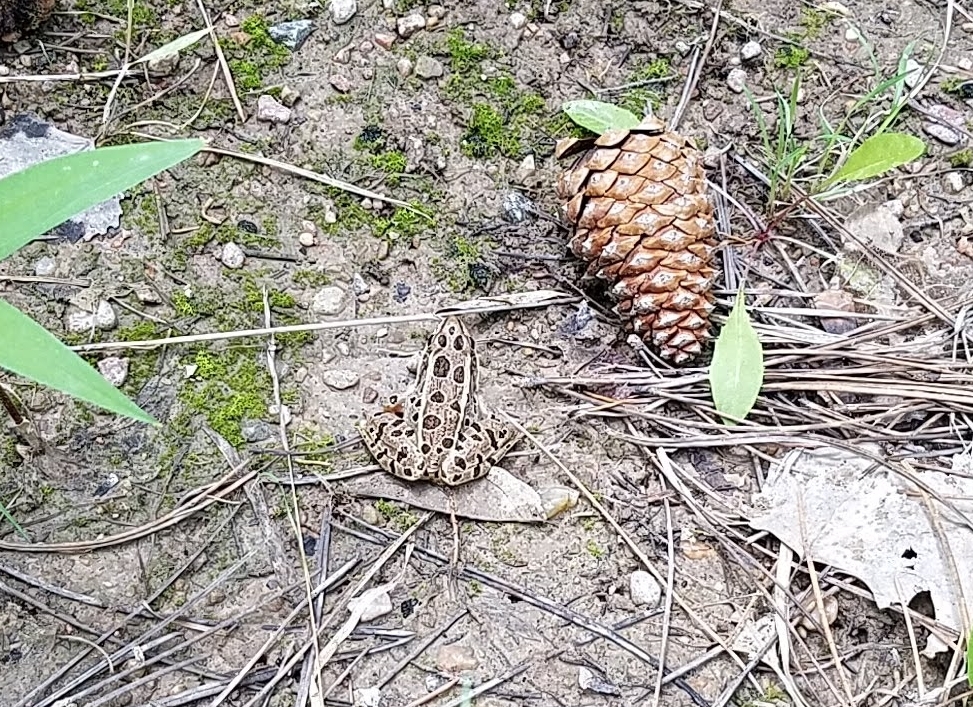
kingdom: Animalia
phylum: Chordata
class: Amphibia
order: Anura
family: Ranidae
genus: Lithobates
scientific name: Lithobates pipiens
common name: Northern leopard frog
